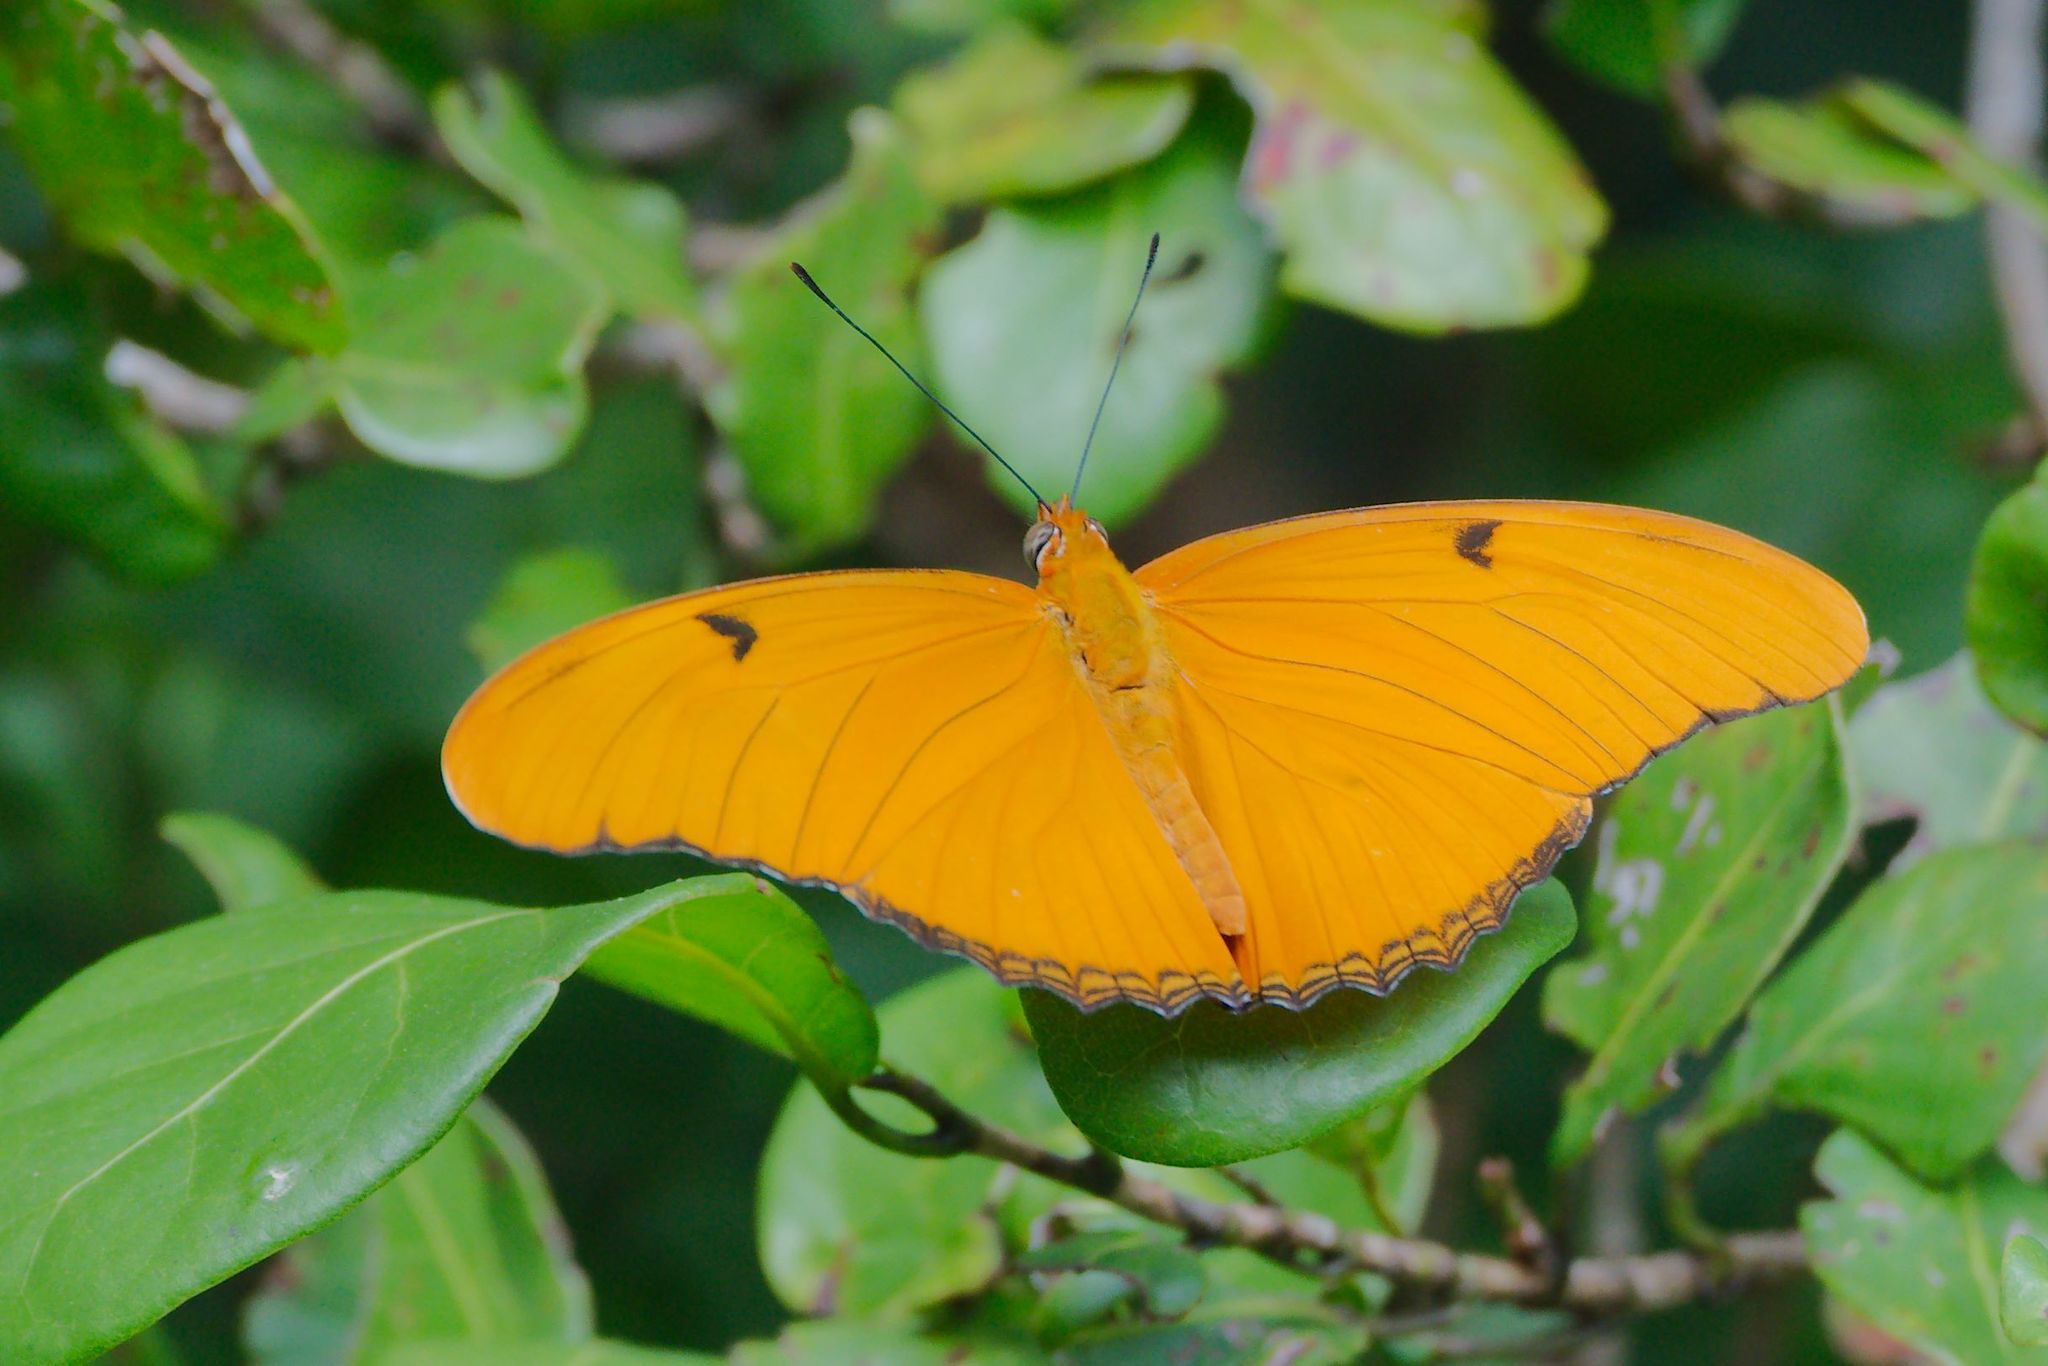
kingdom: Animalia
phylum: Arthropoda
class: Insecta
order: Lepidoptera
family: Nymphalidae
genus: Dryas
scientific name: Dryas iulia
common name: Flambeau
